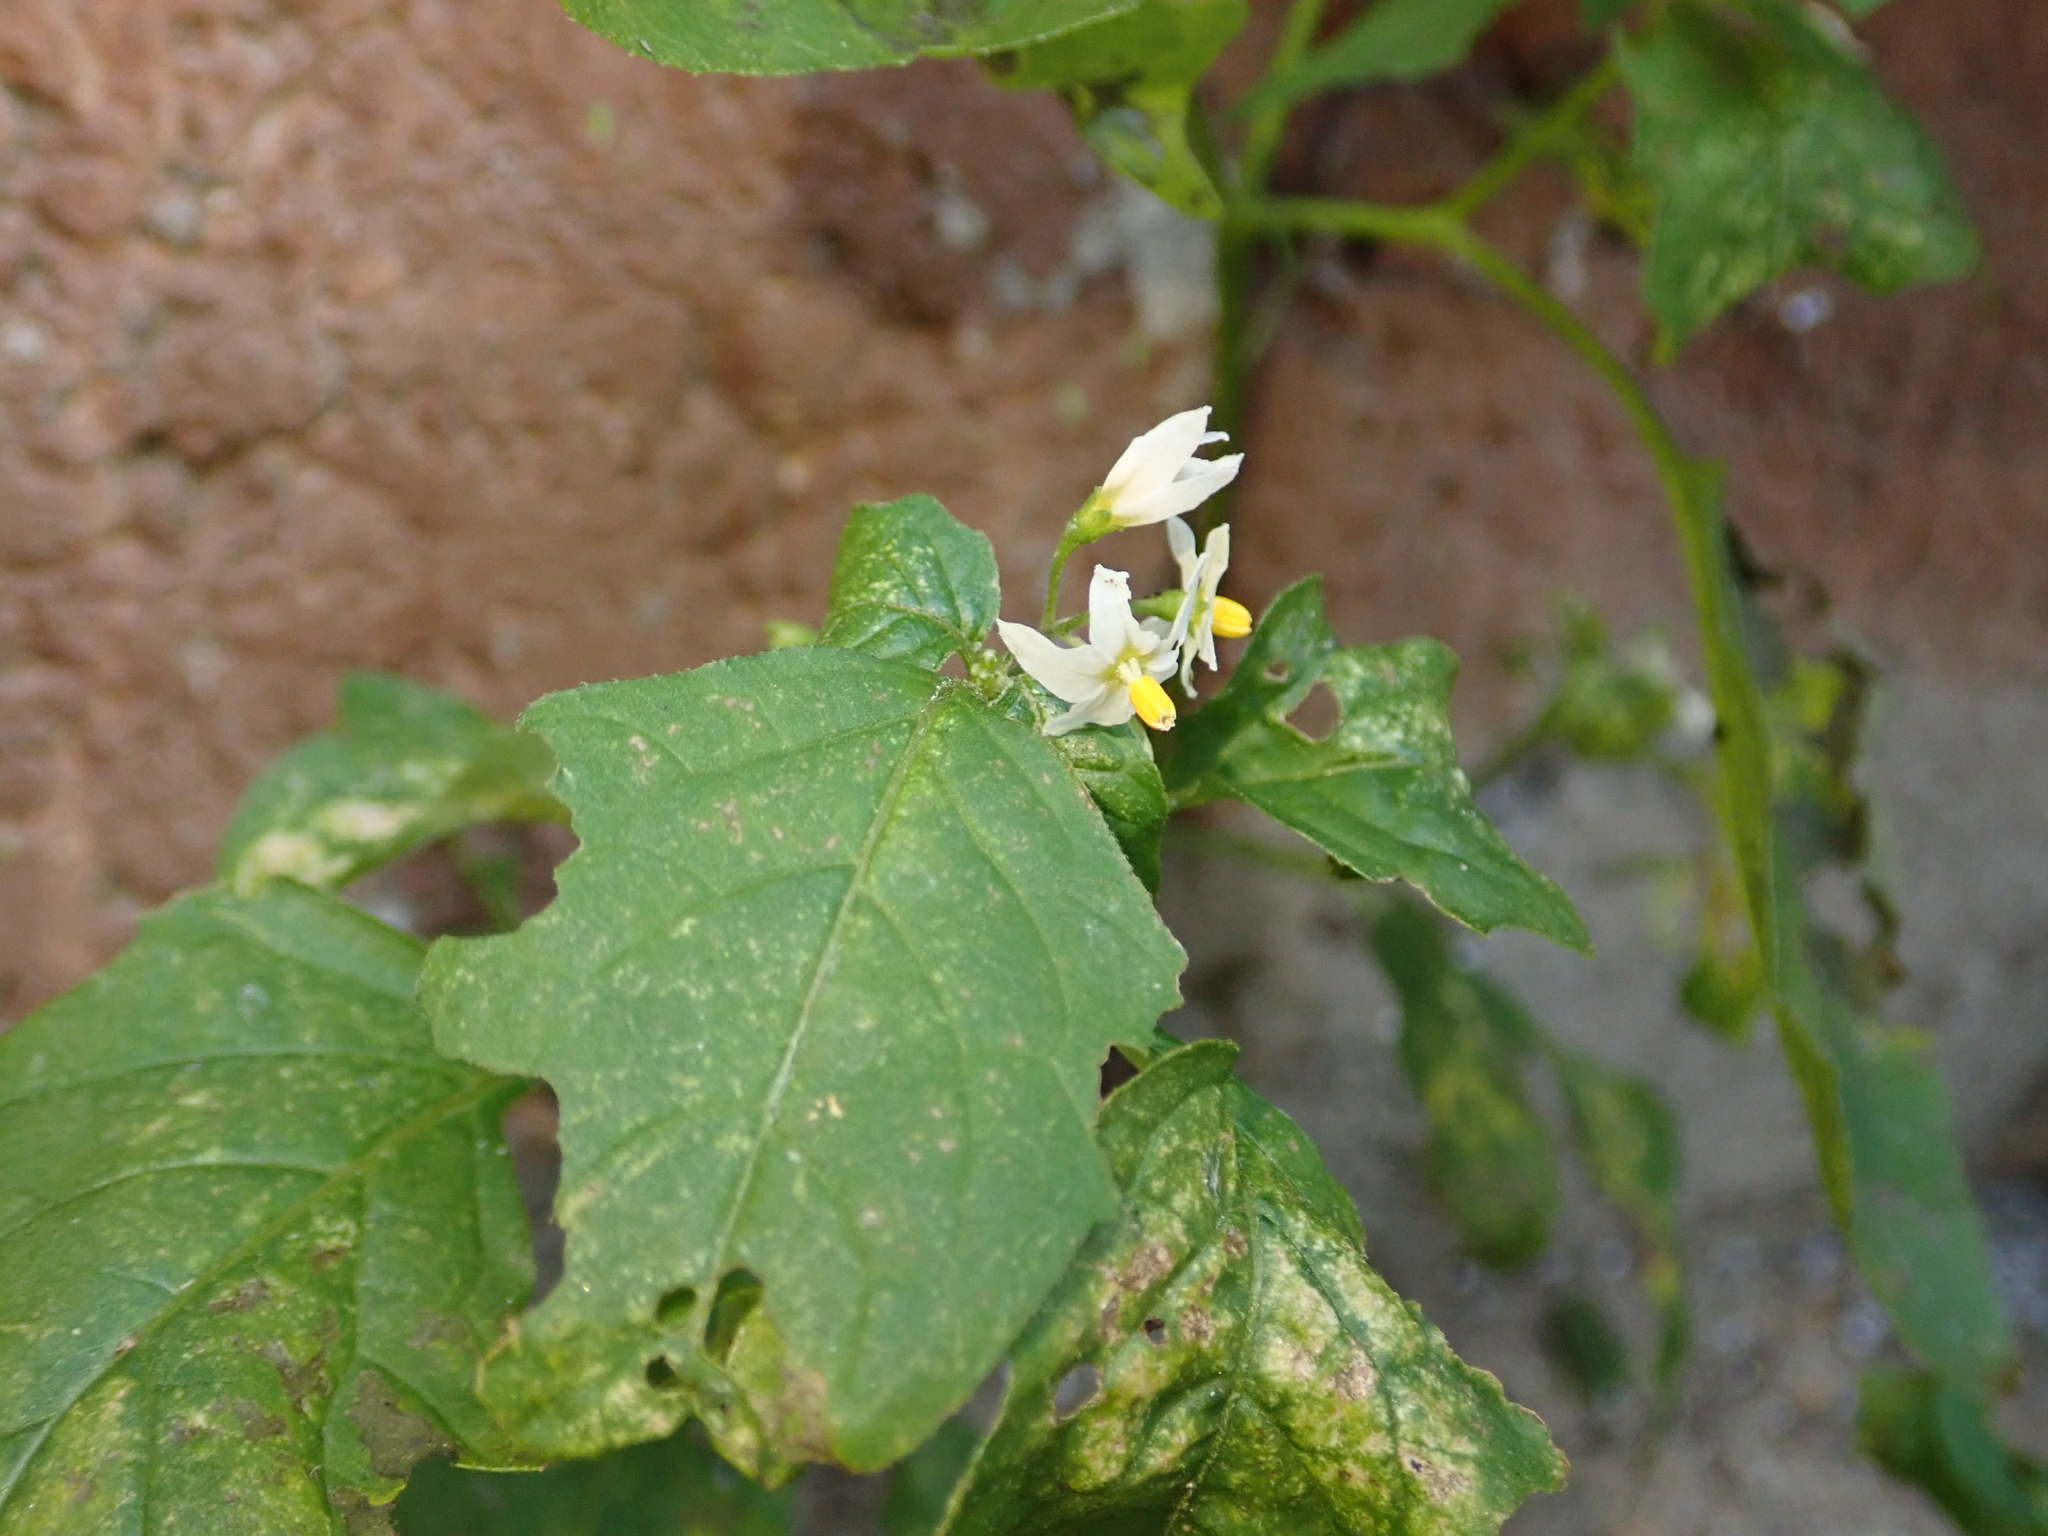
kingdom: Plantae
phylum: Tracheophyta
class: Magnoliopsida
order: Solanales
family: Solanaceae
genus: Solanum
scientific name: Solanum nigrum
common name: Black nightshade
